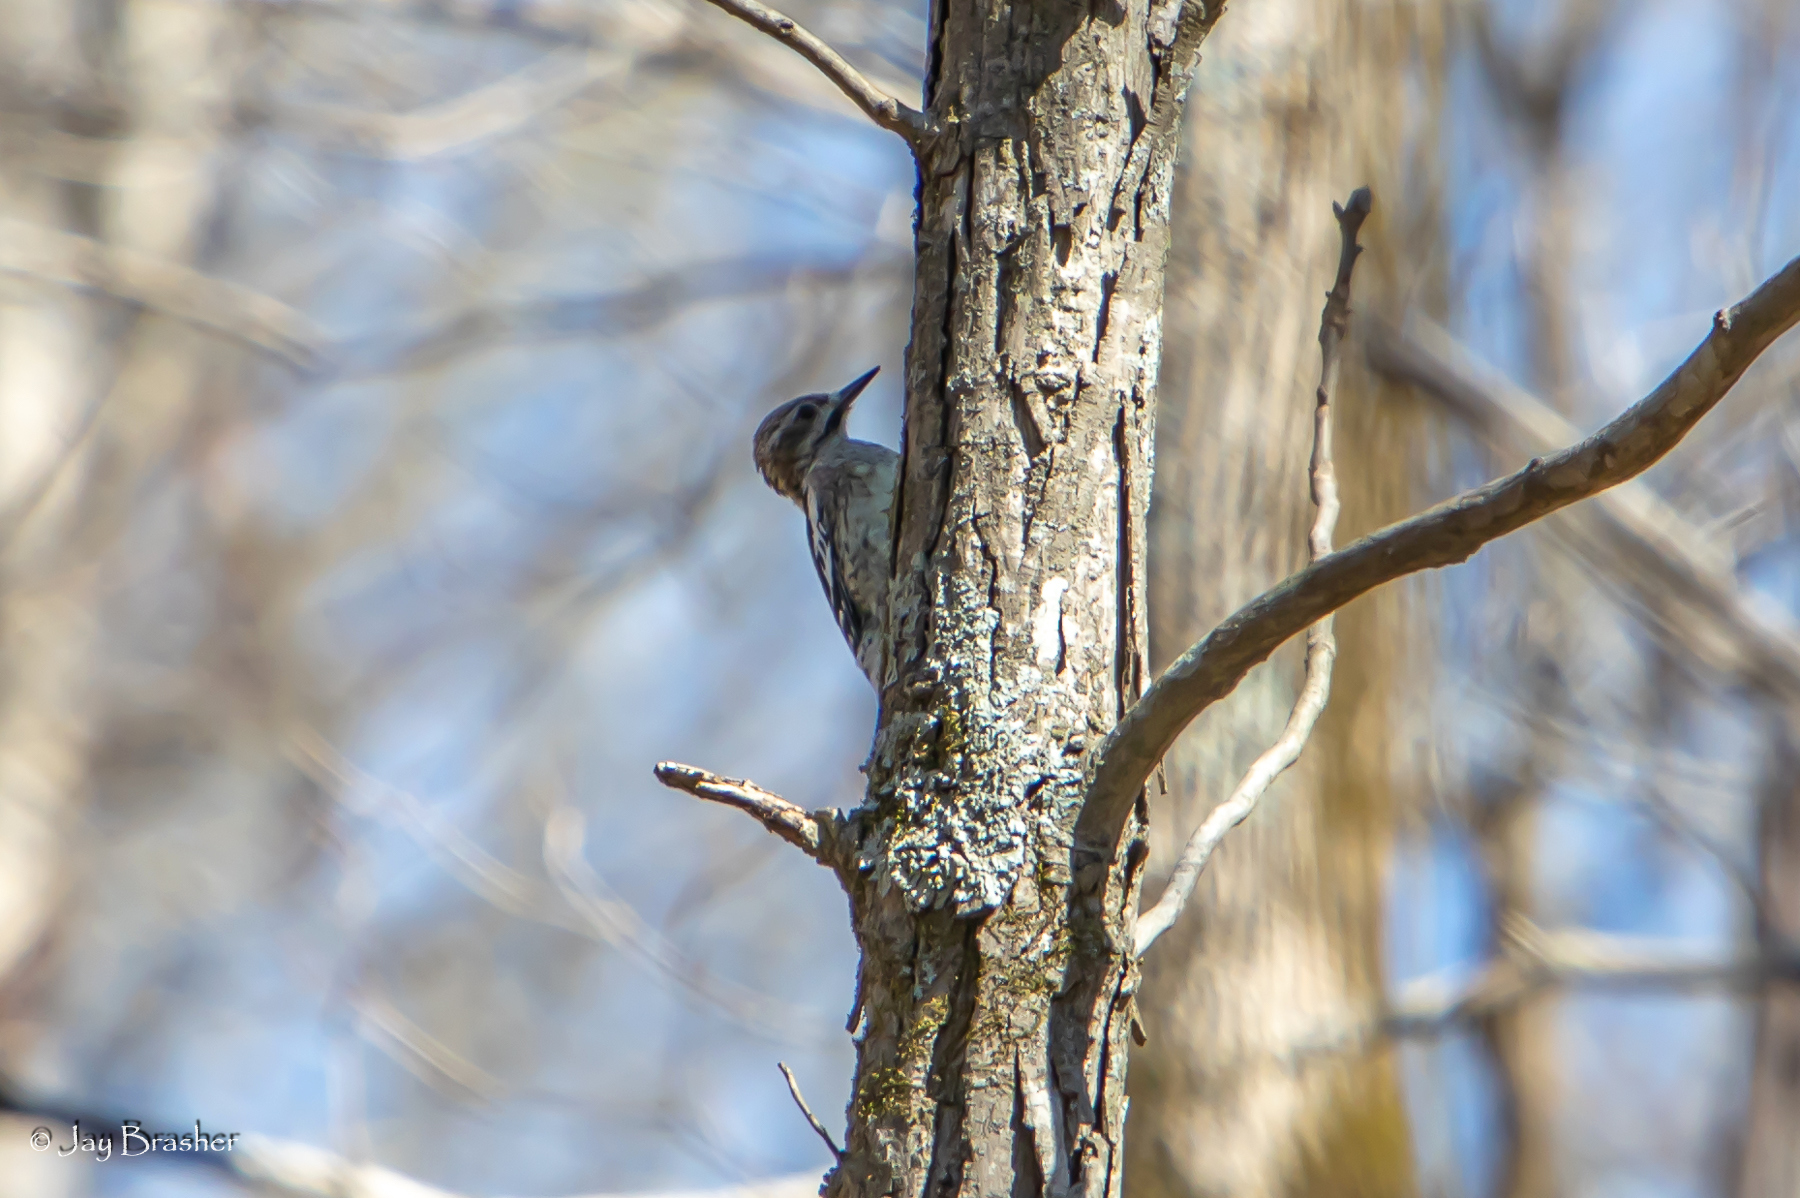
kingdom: Animalia
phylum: Chordata
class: Aves
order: Piciformes
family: Picidae
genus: Sphyrapicus
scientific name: Sphyrapicus varius
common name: Yellow-bellied sapsucker
